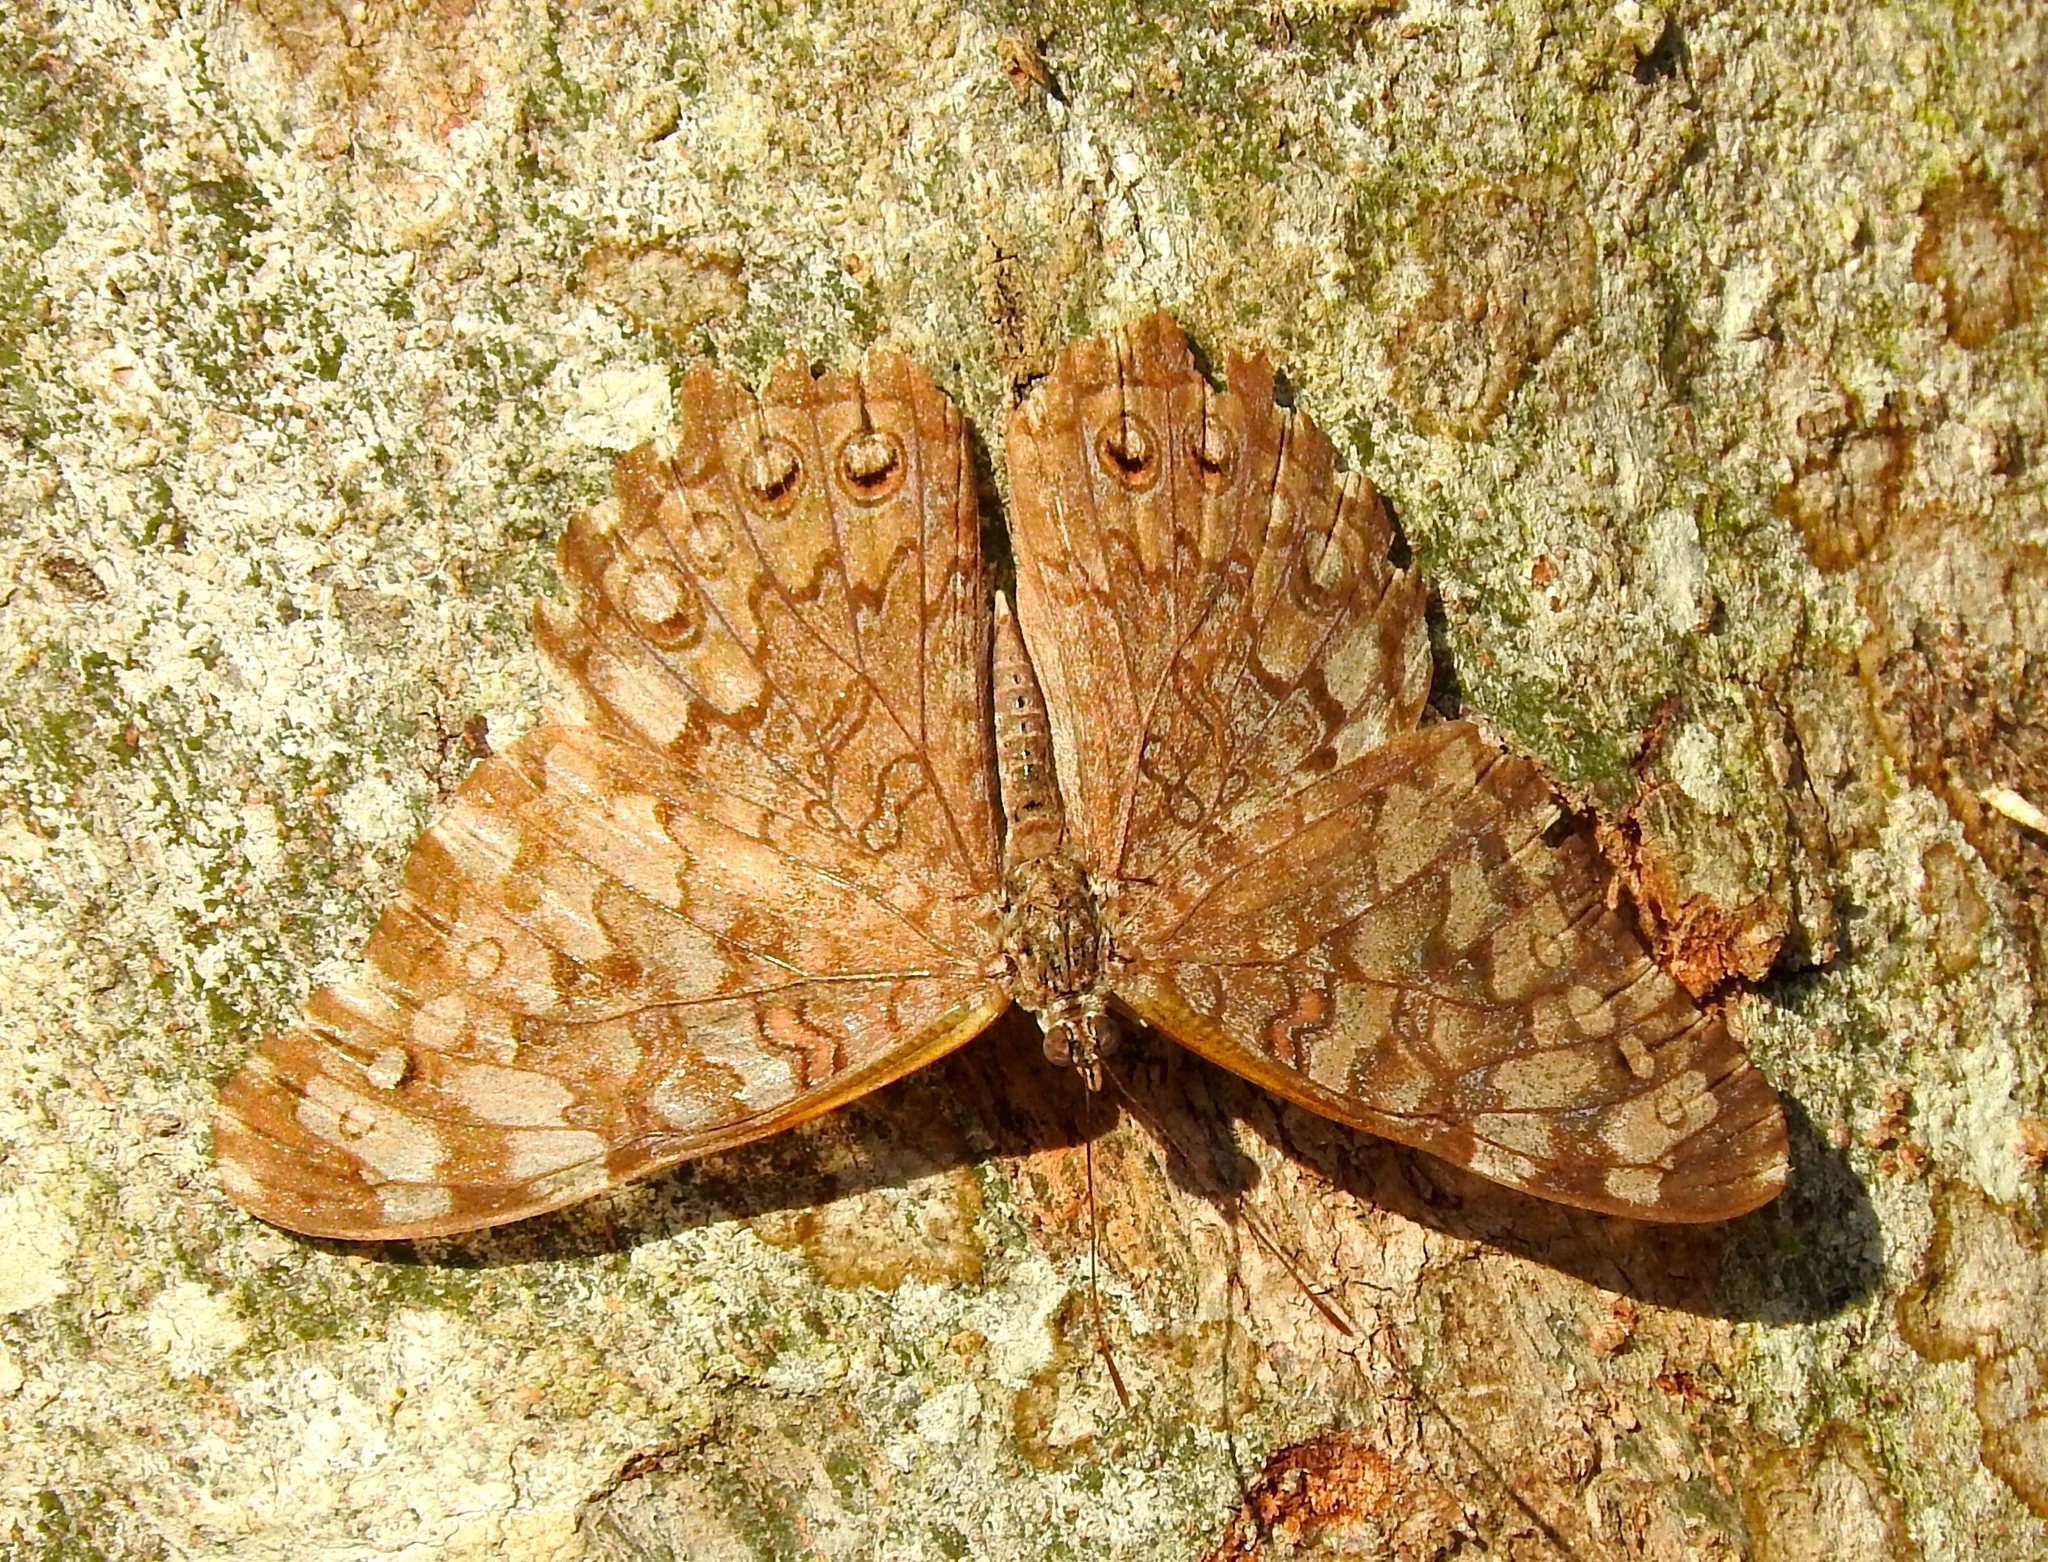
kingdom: Animalia
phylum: Arthropoda
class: Insecta
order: Lepidoptera
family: Nymphalidae
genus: Hamadryas
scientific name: Hamadryas februa
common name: Gray cracker
